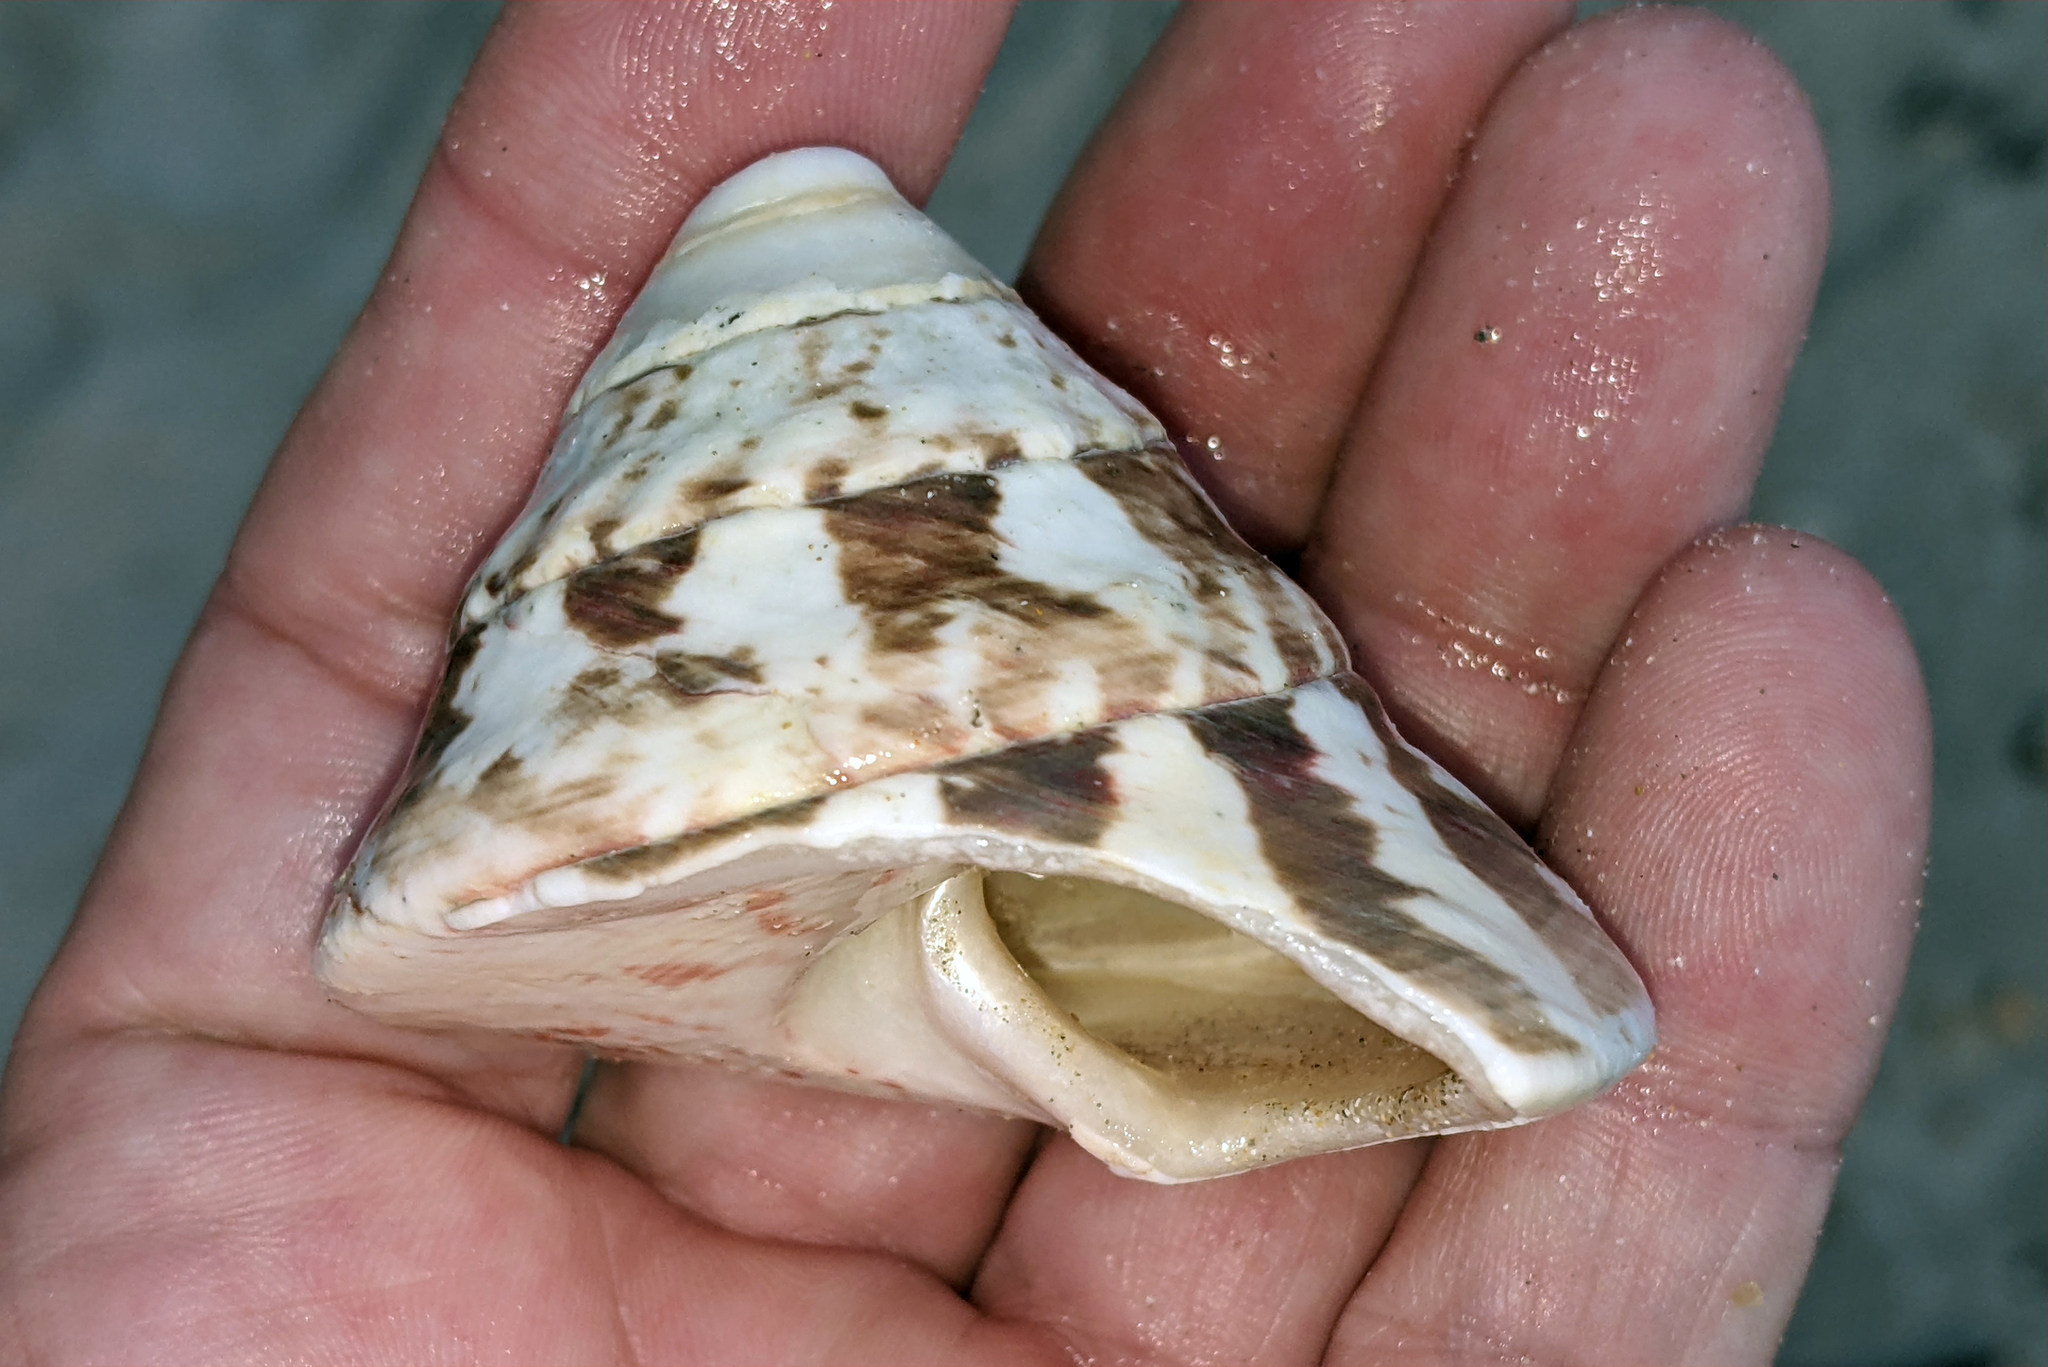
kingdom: Animalia
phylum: Mollusca
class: Gastropoda
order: Trochida
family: Tegulidae
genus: Rochia
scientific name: Rochia nilotica
